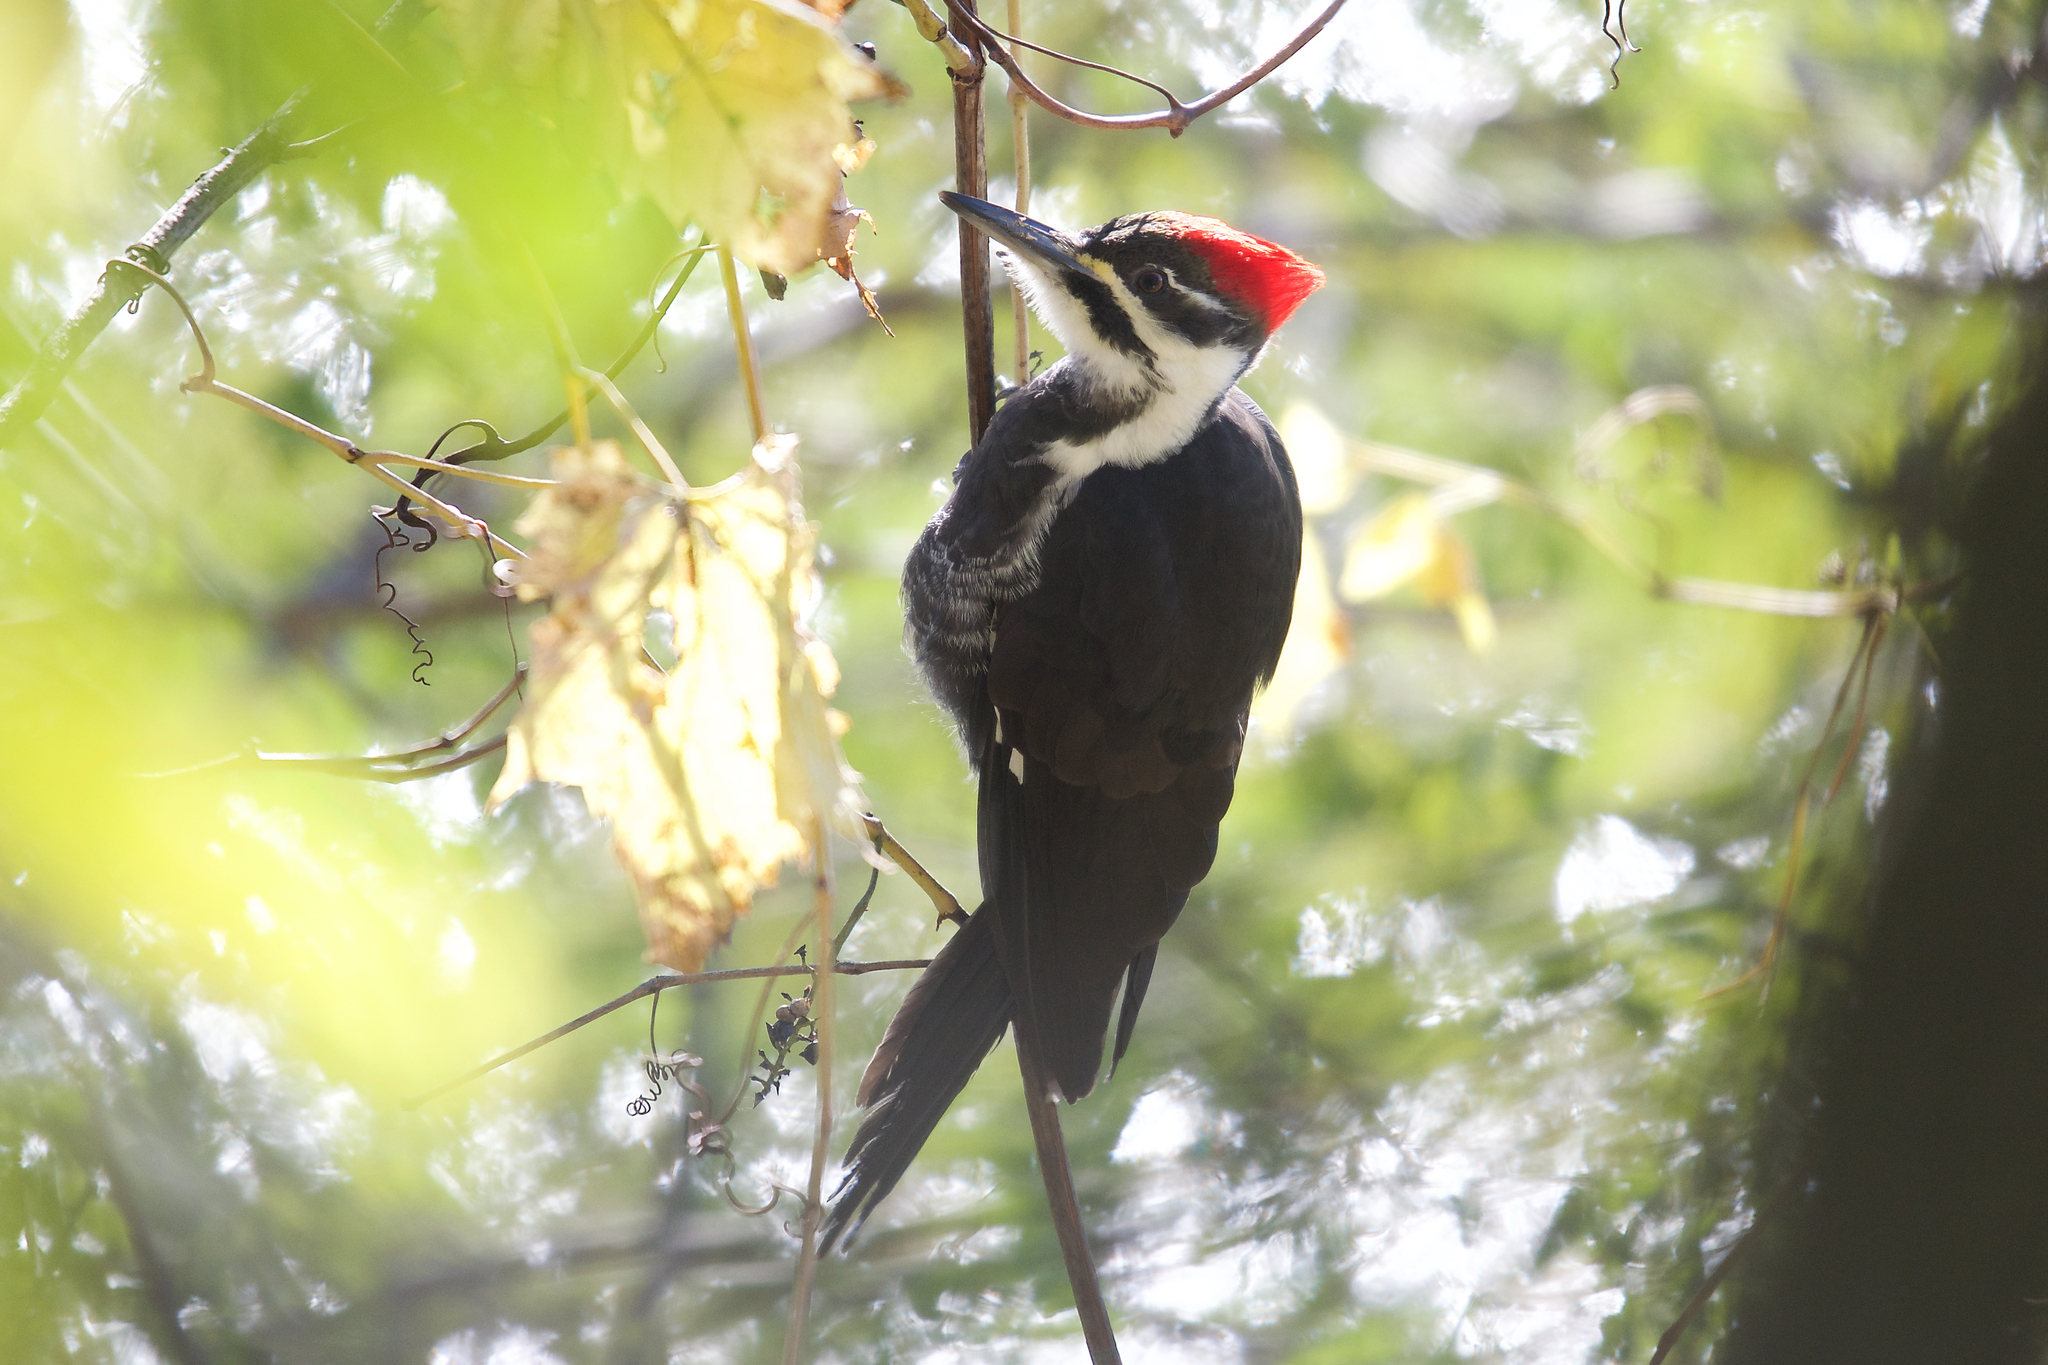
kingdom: Animalia
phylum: Chordata
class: Aves
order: Piciformes
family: Picidae
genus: Dryocopus
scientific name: Dryocopus pileatus
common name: Pileated woodpecker
